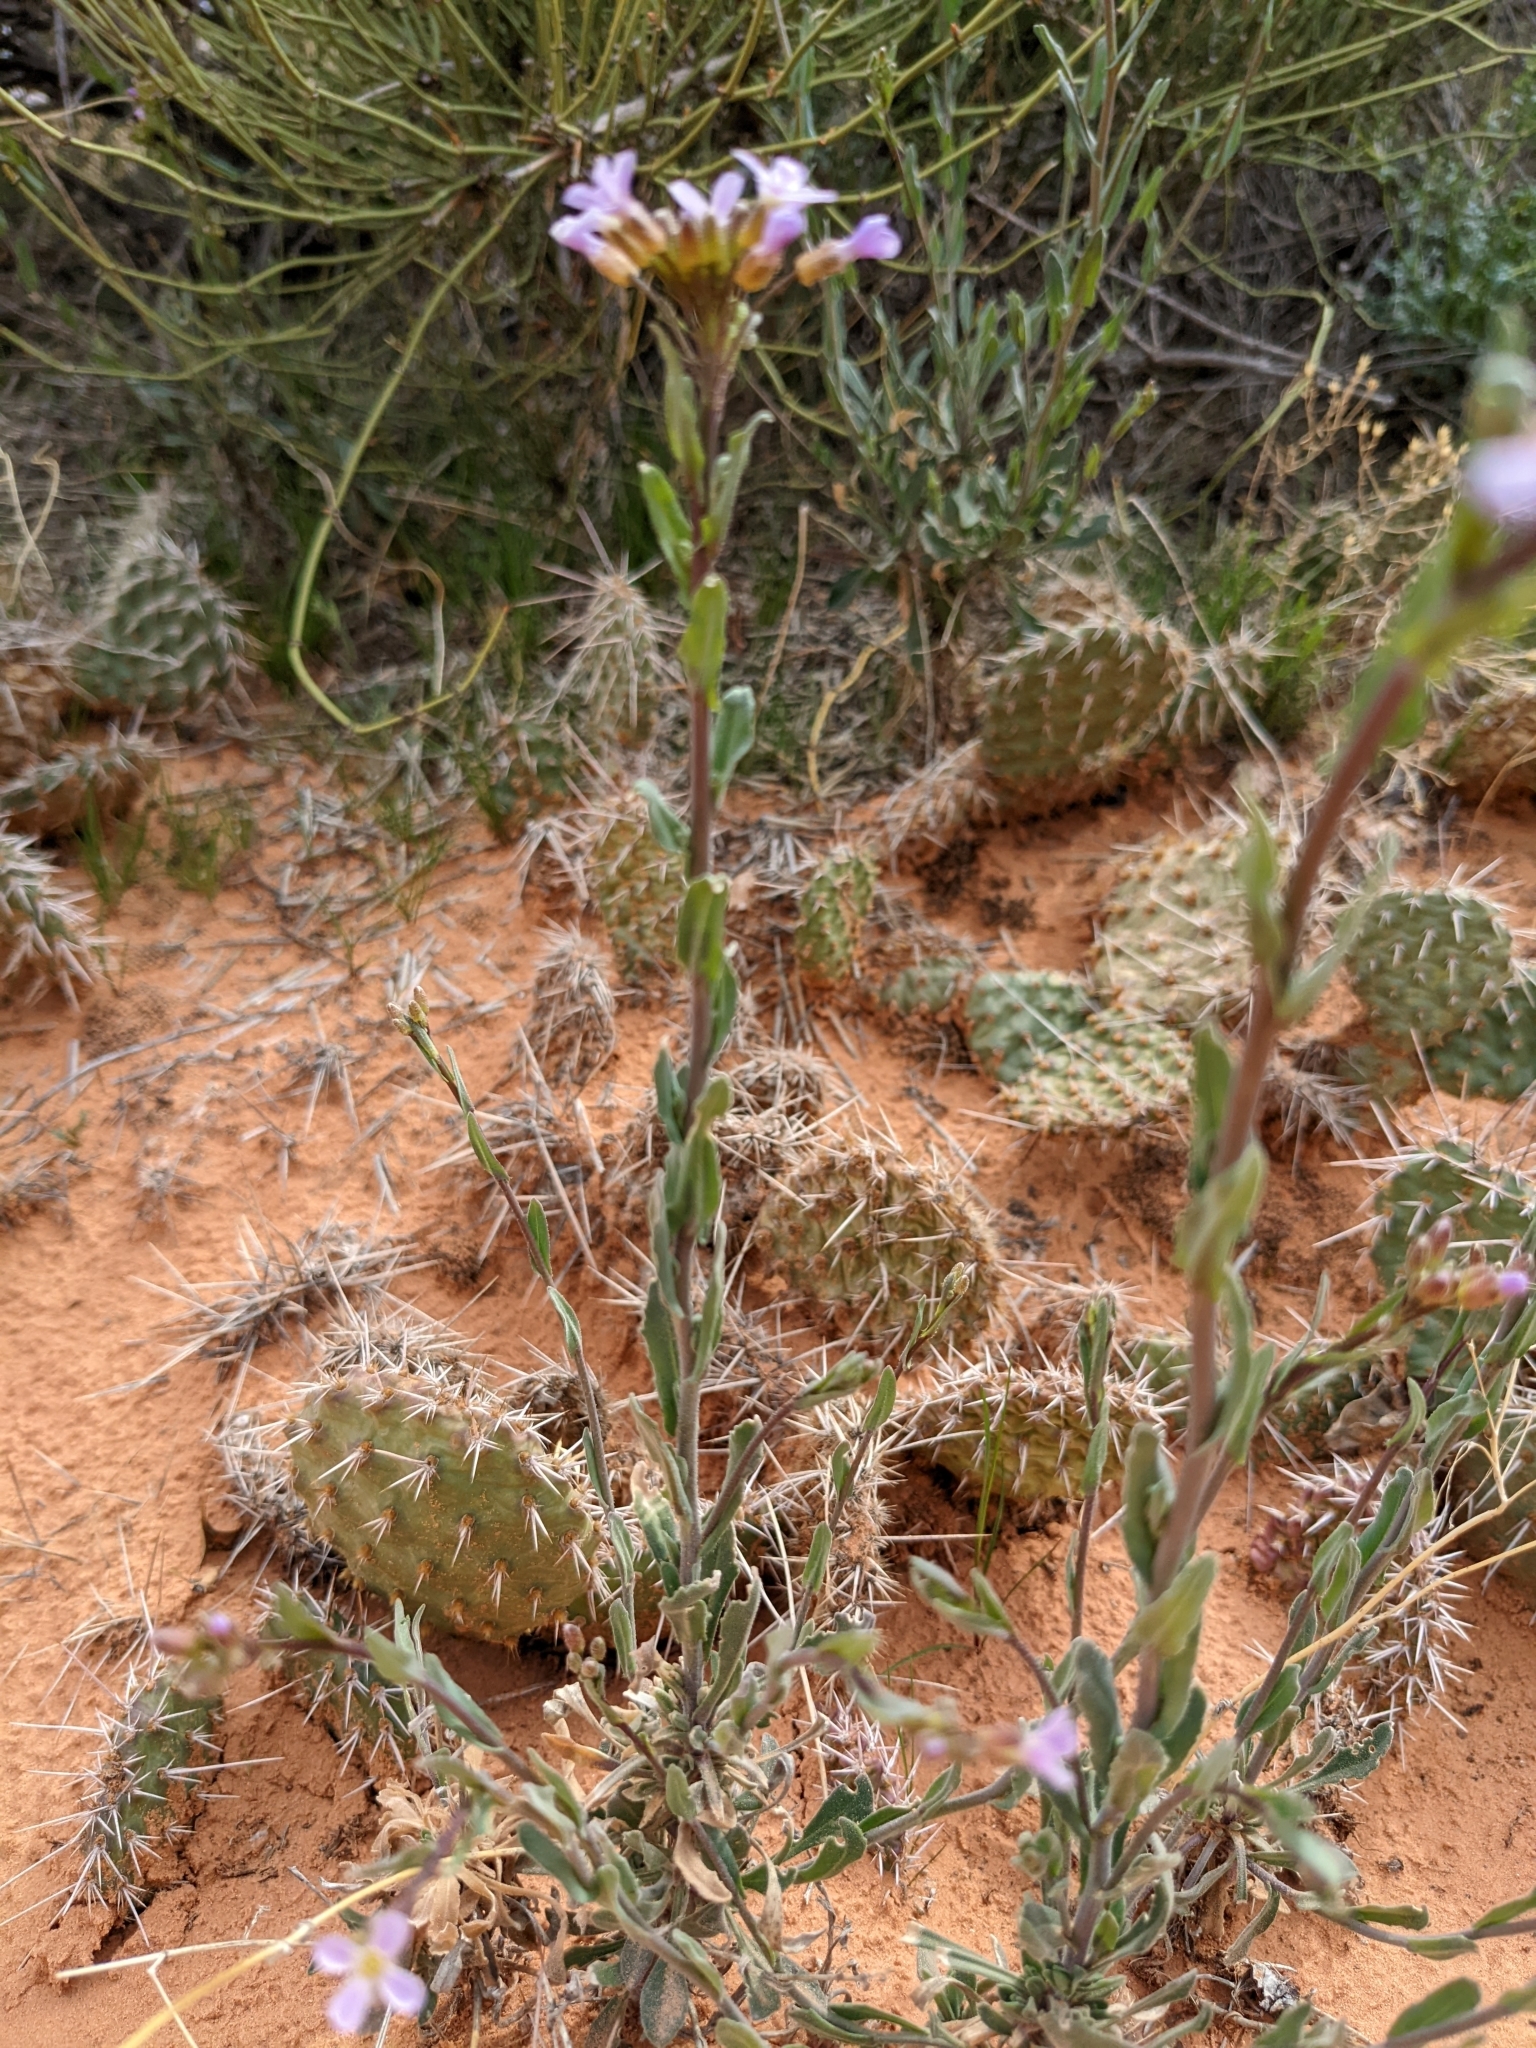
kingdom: Plantae
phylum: Tracheophyta
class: Magnoliopsida
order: Brassicales
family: Brassicaceae
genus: Boechera
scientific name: Boechera quadrangulensis
